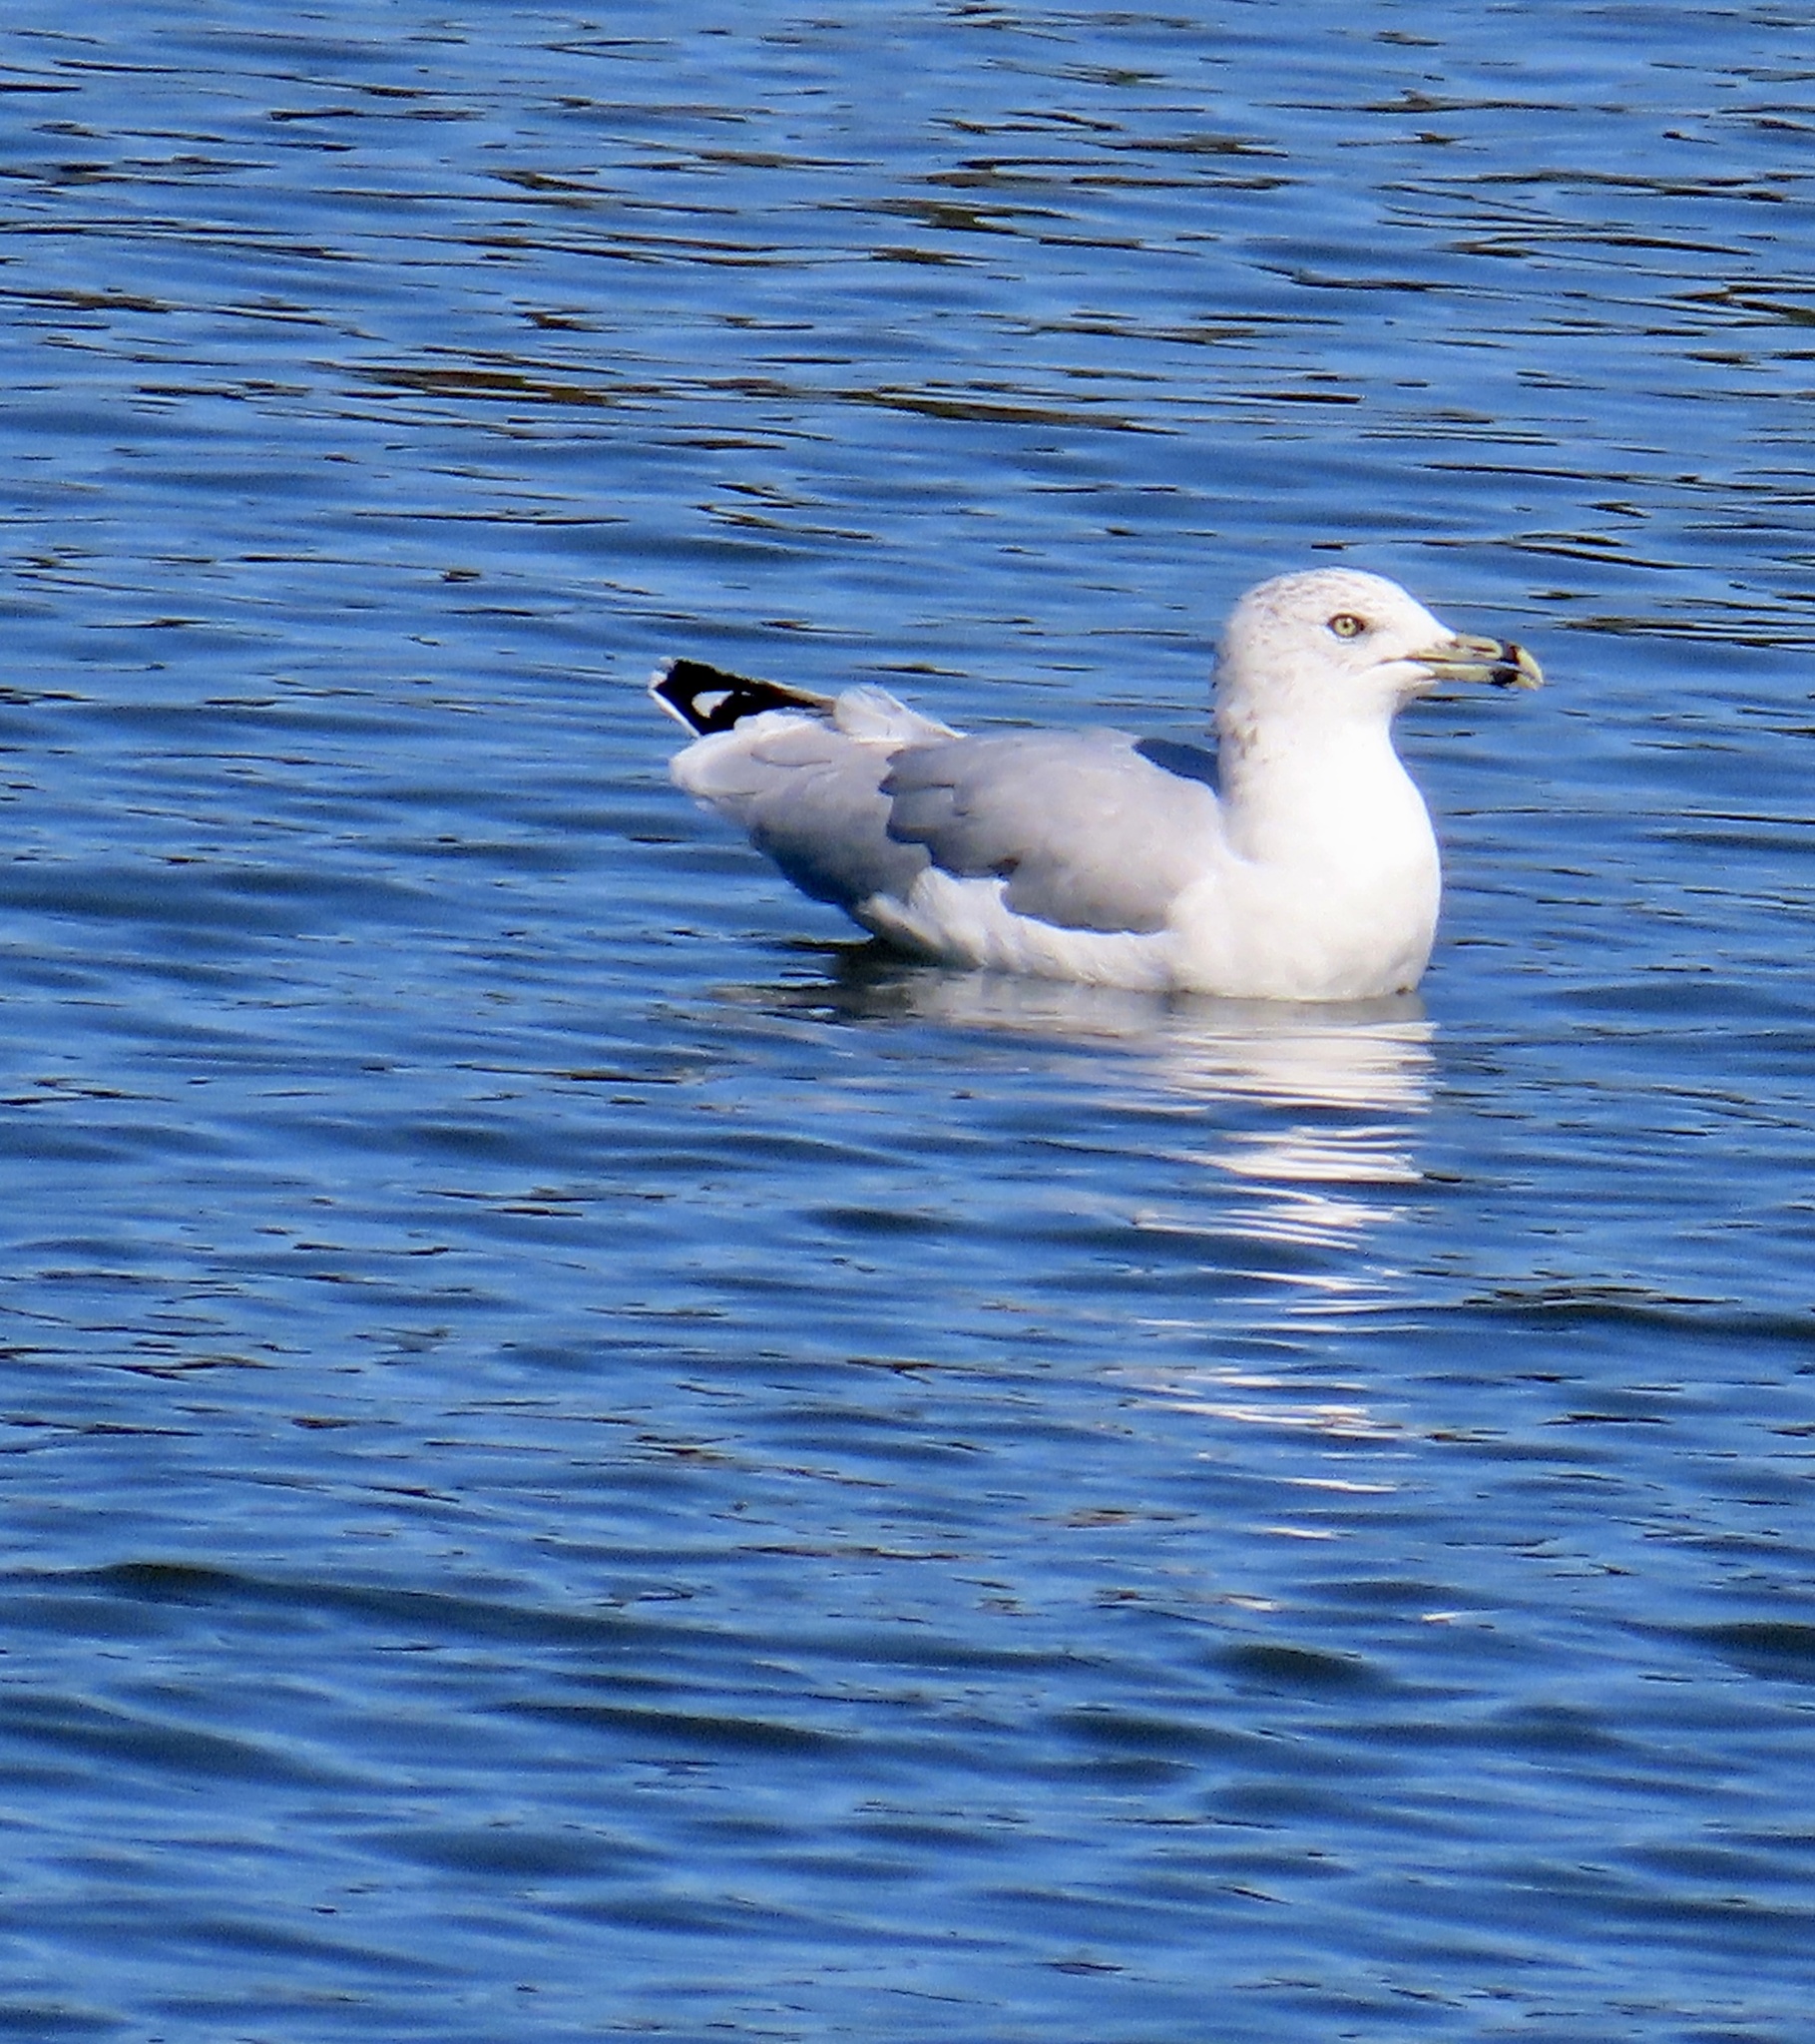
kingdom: Animalia
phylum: Chordata
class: Aves
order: Charadriiformes
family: Laridae
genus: Larus
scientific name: Larus delawarensis
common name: Ring-billed gull
